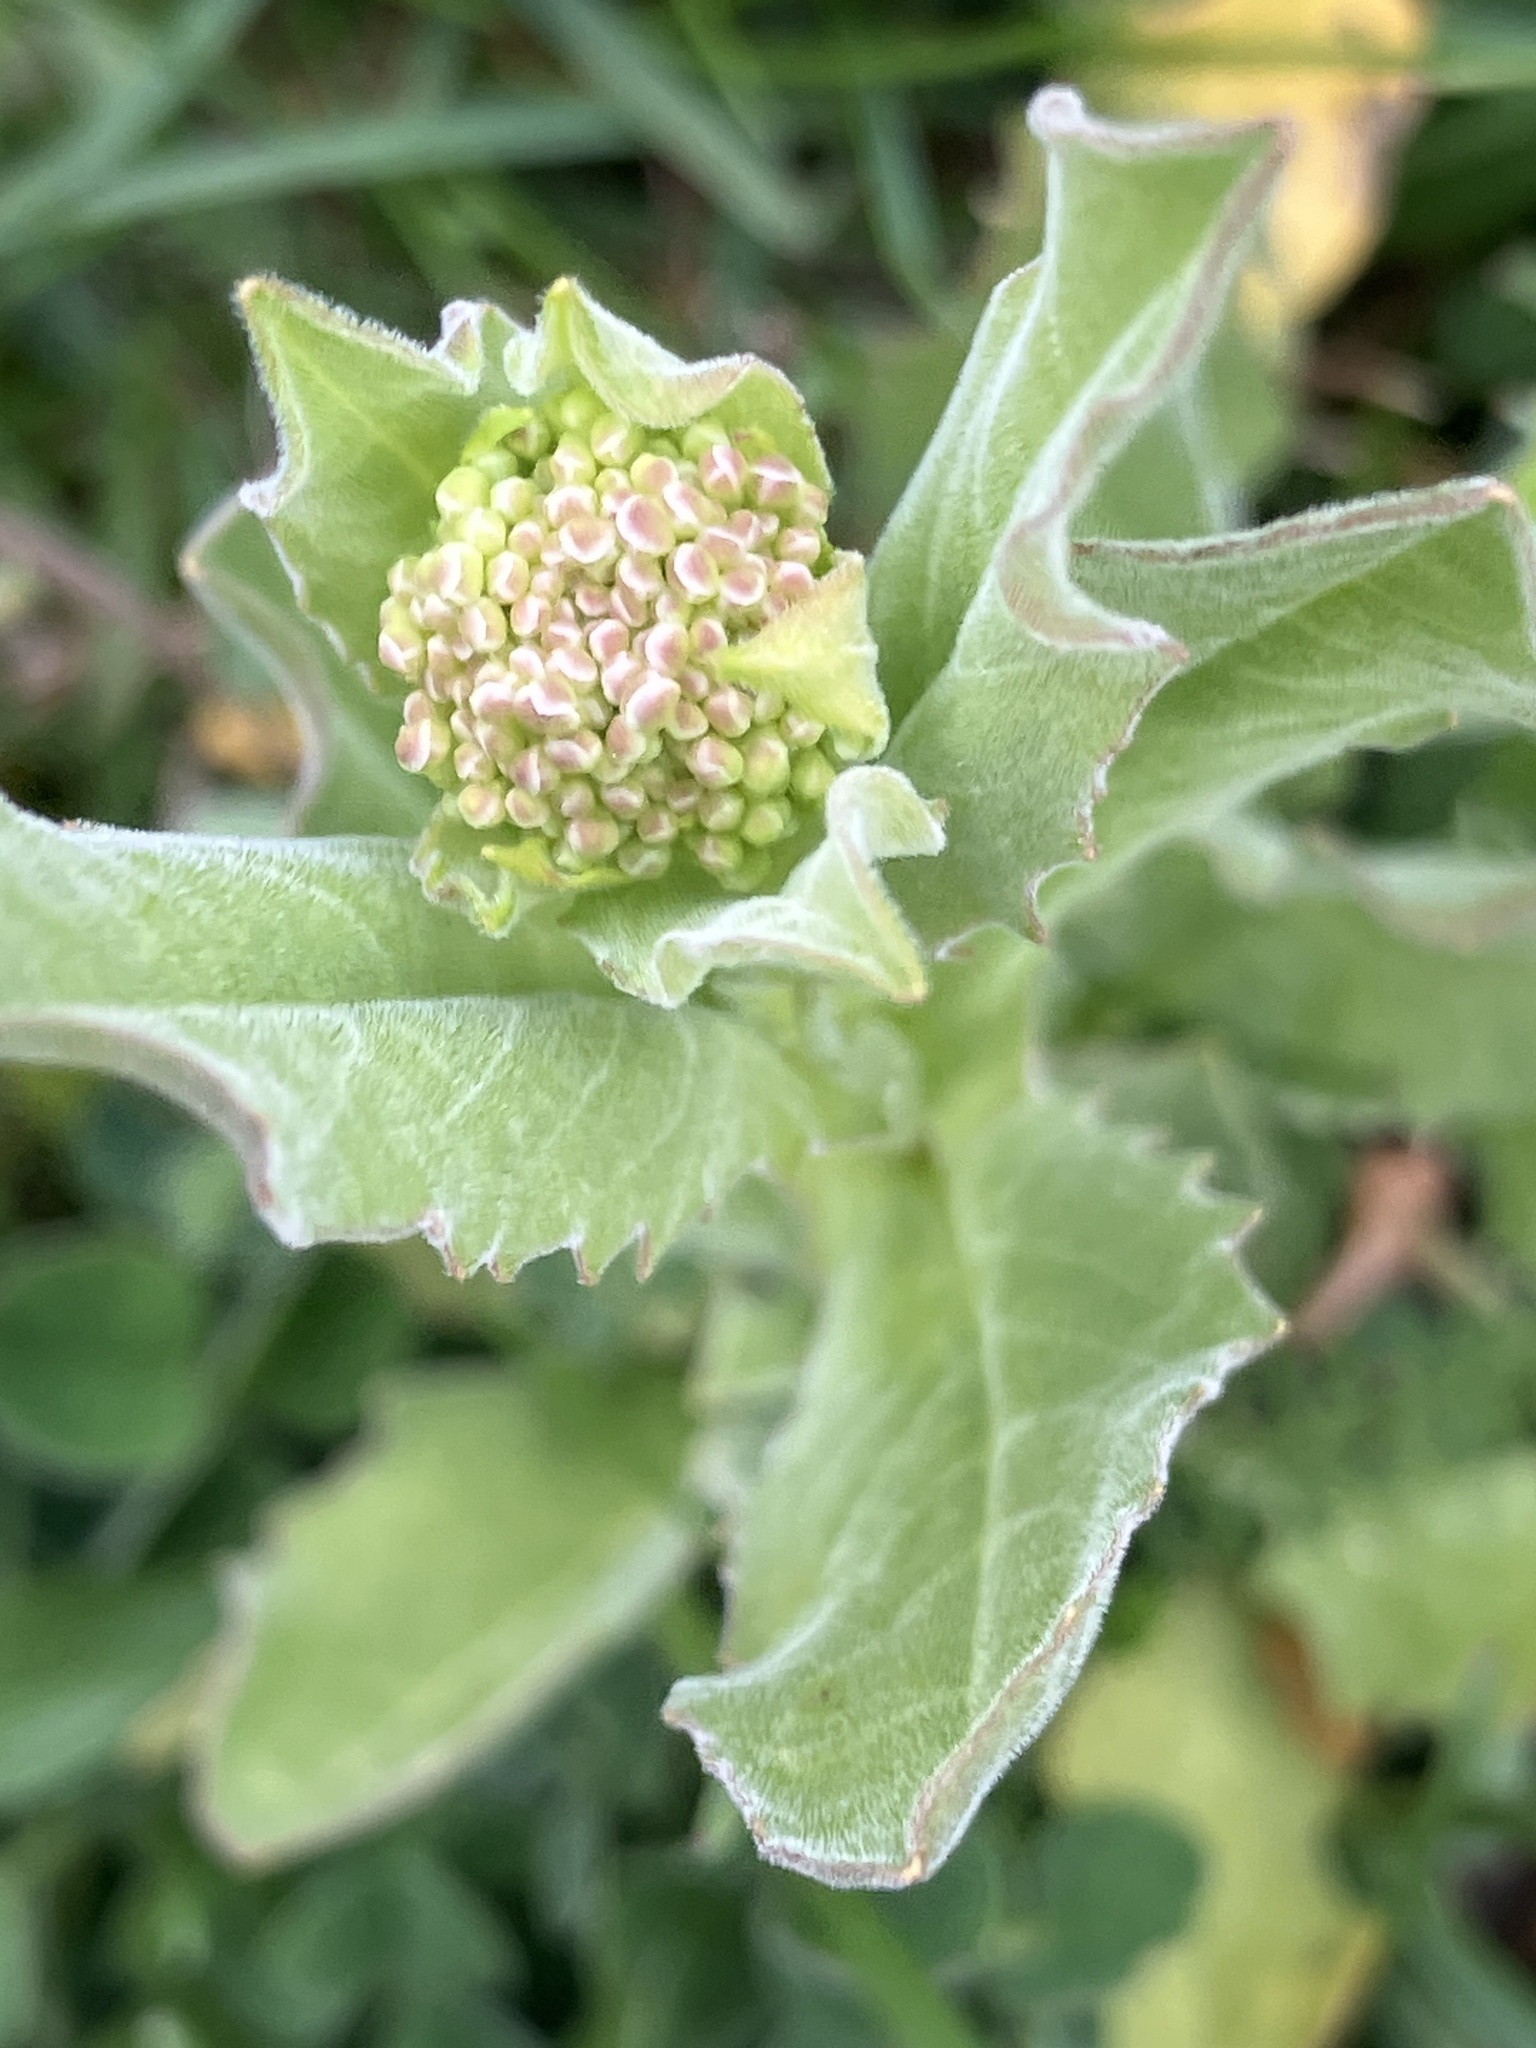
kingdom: Plantae
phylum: Tracheophyta
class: Magnoliopsida
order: Brassicales
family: Brassicaceae
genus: Lepidium
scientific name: Lepidium draba
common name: Hoary cress
